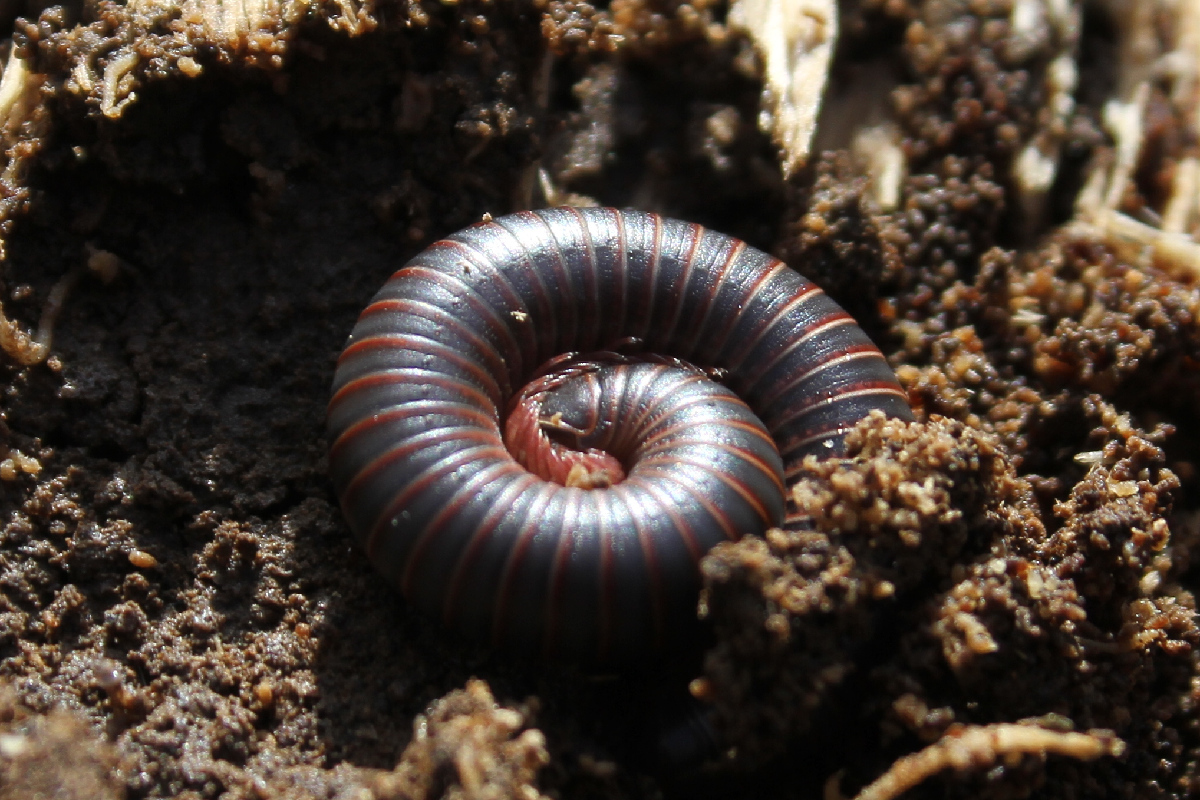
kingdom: Animalia
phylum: Arthropoda
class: Diplopoda
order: Spirobolida
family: Spirobolidae
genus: Narceus
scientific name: Narceus
